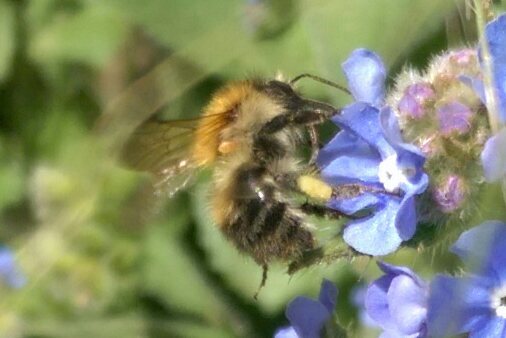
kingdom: Animalia
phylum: Arthropoda
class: Insecta
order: Hymenoptera
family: Apidae
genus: Bombus
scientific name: Bombus pascuorum
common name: Common carder bee
